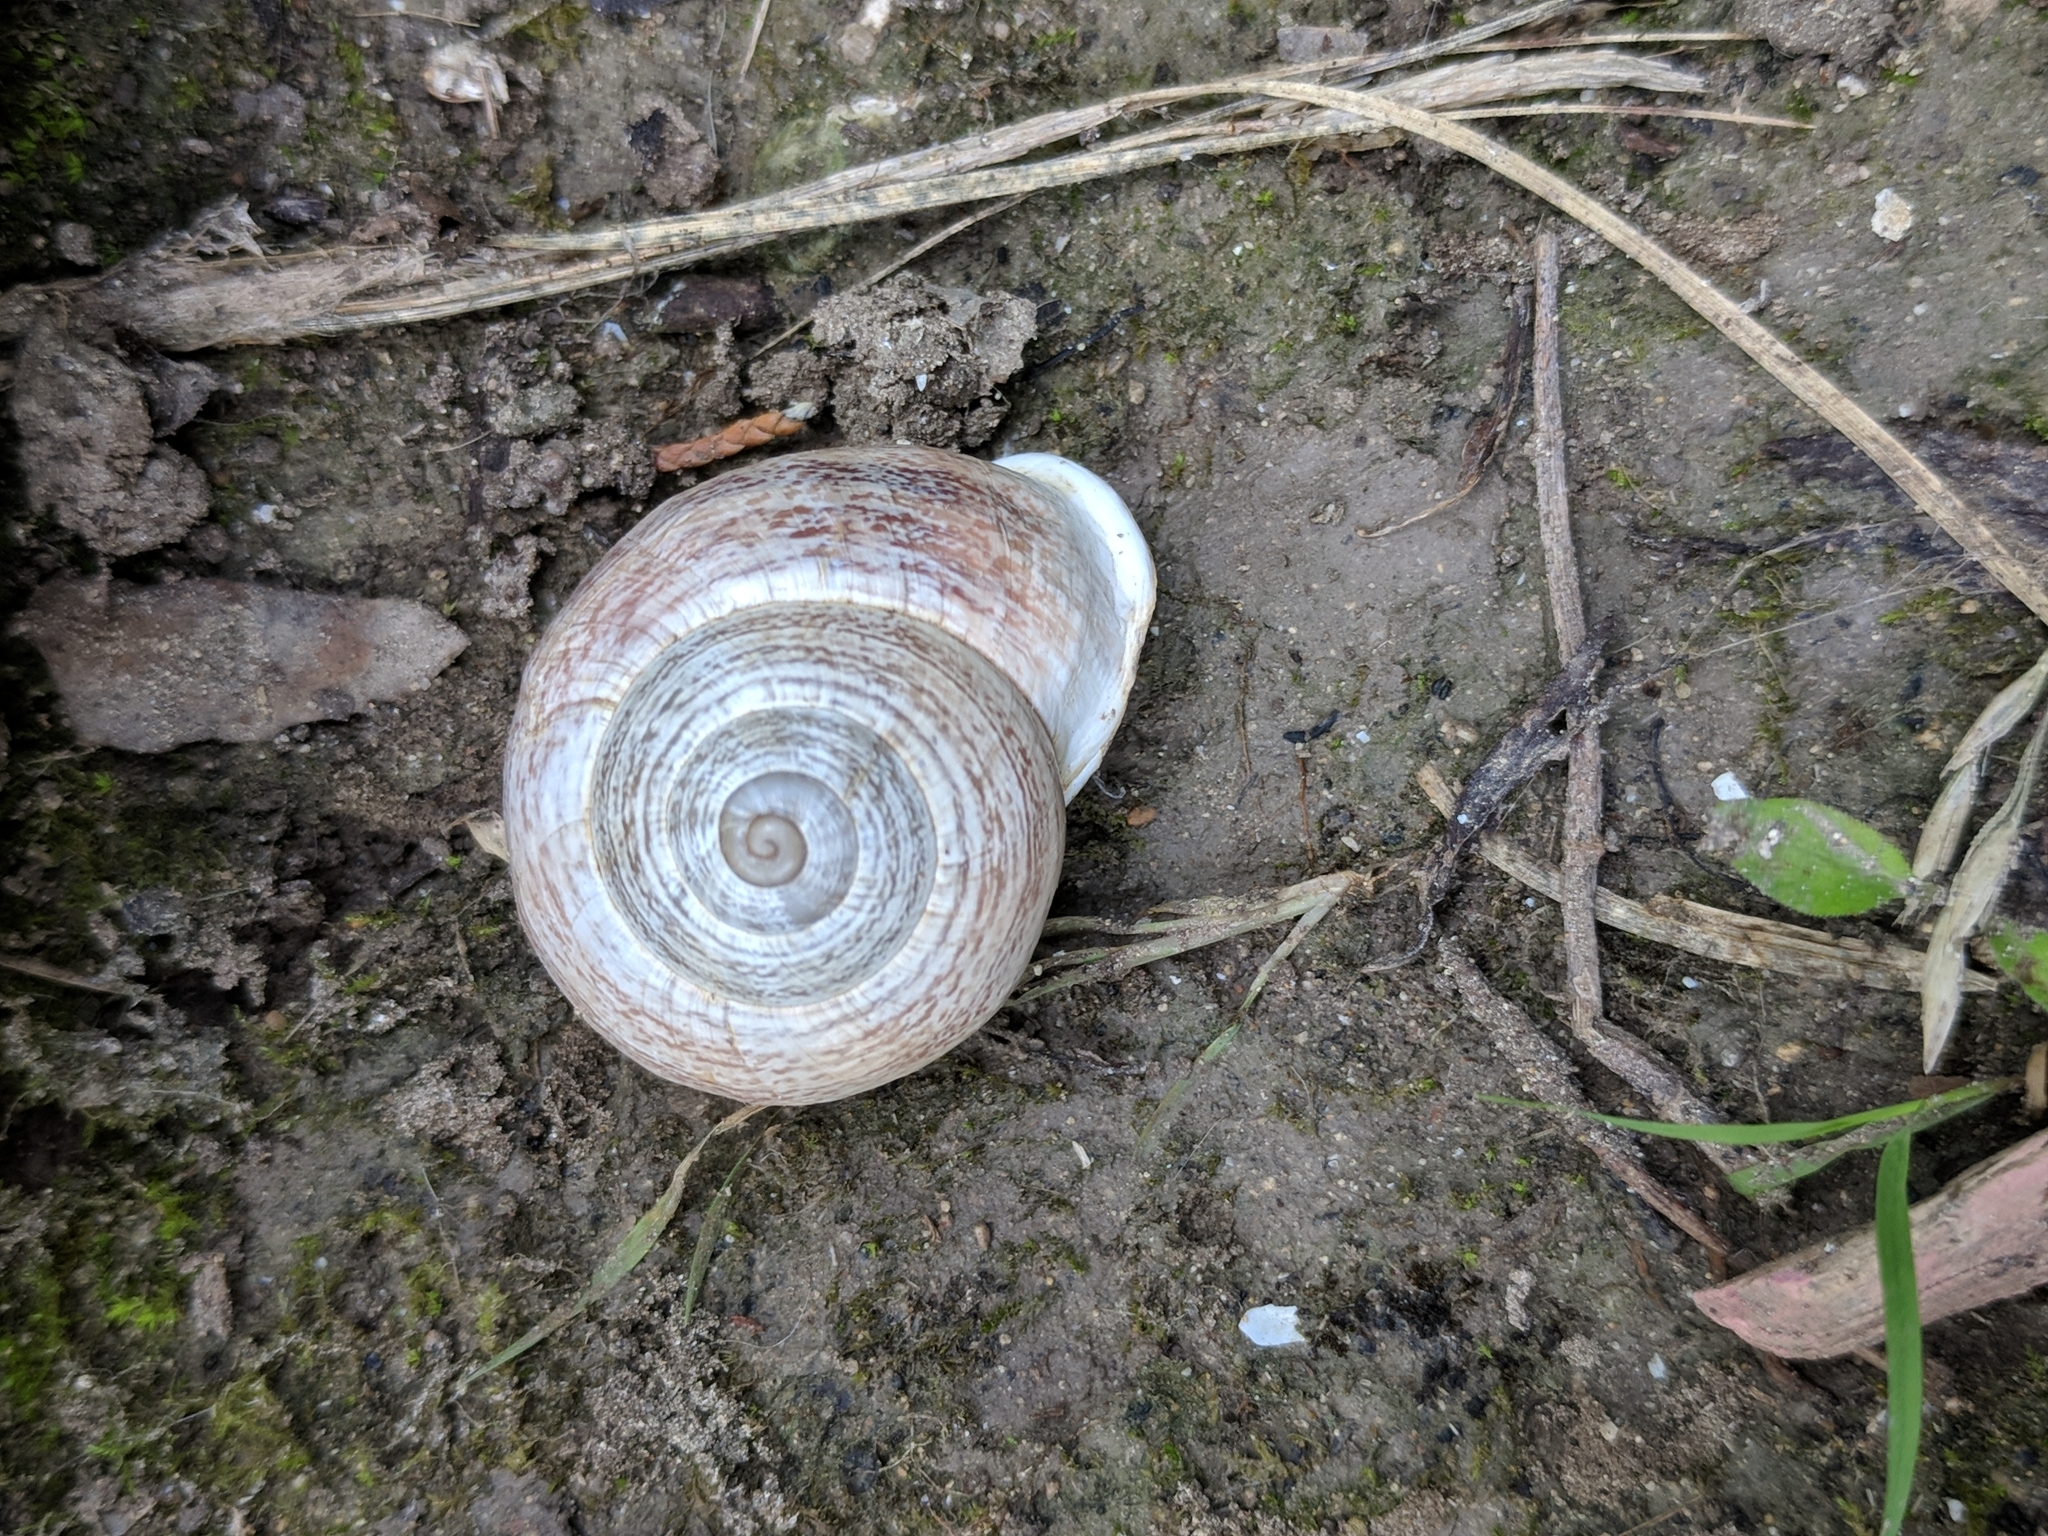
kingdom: Animalia
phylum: Mollusca
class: Gastropoda
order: Stylommatophora
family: Helicidae
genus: Otala
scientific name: Otala lactea
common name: Milk snail
